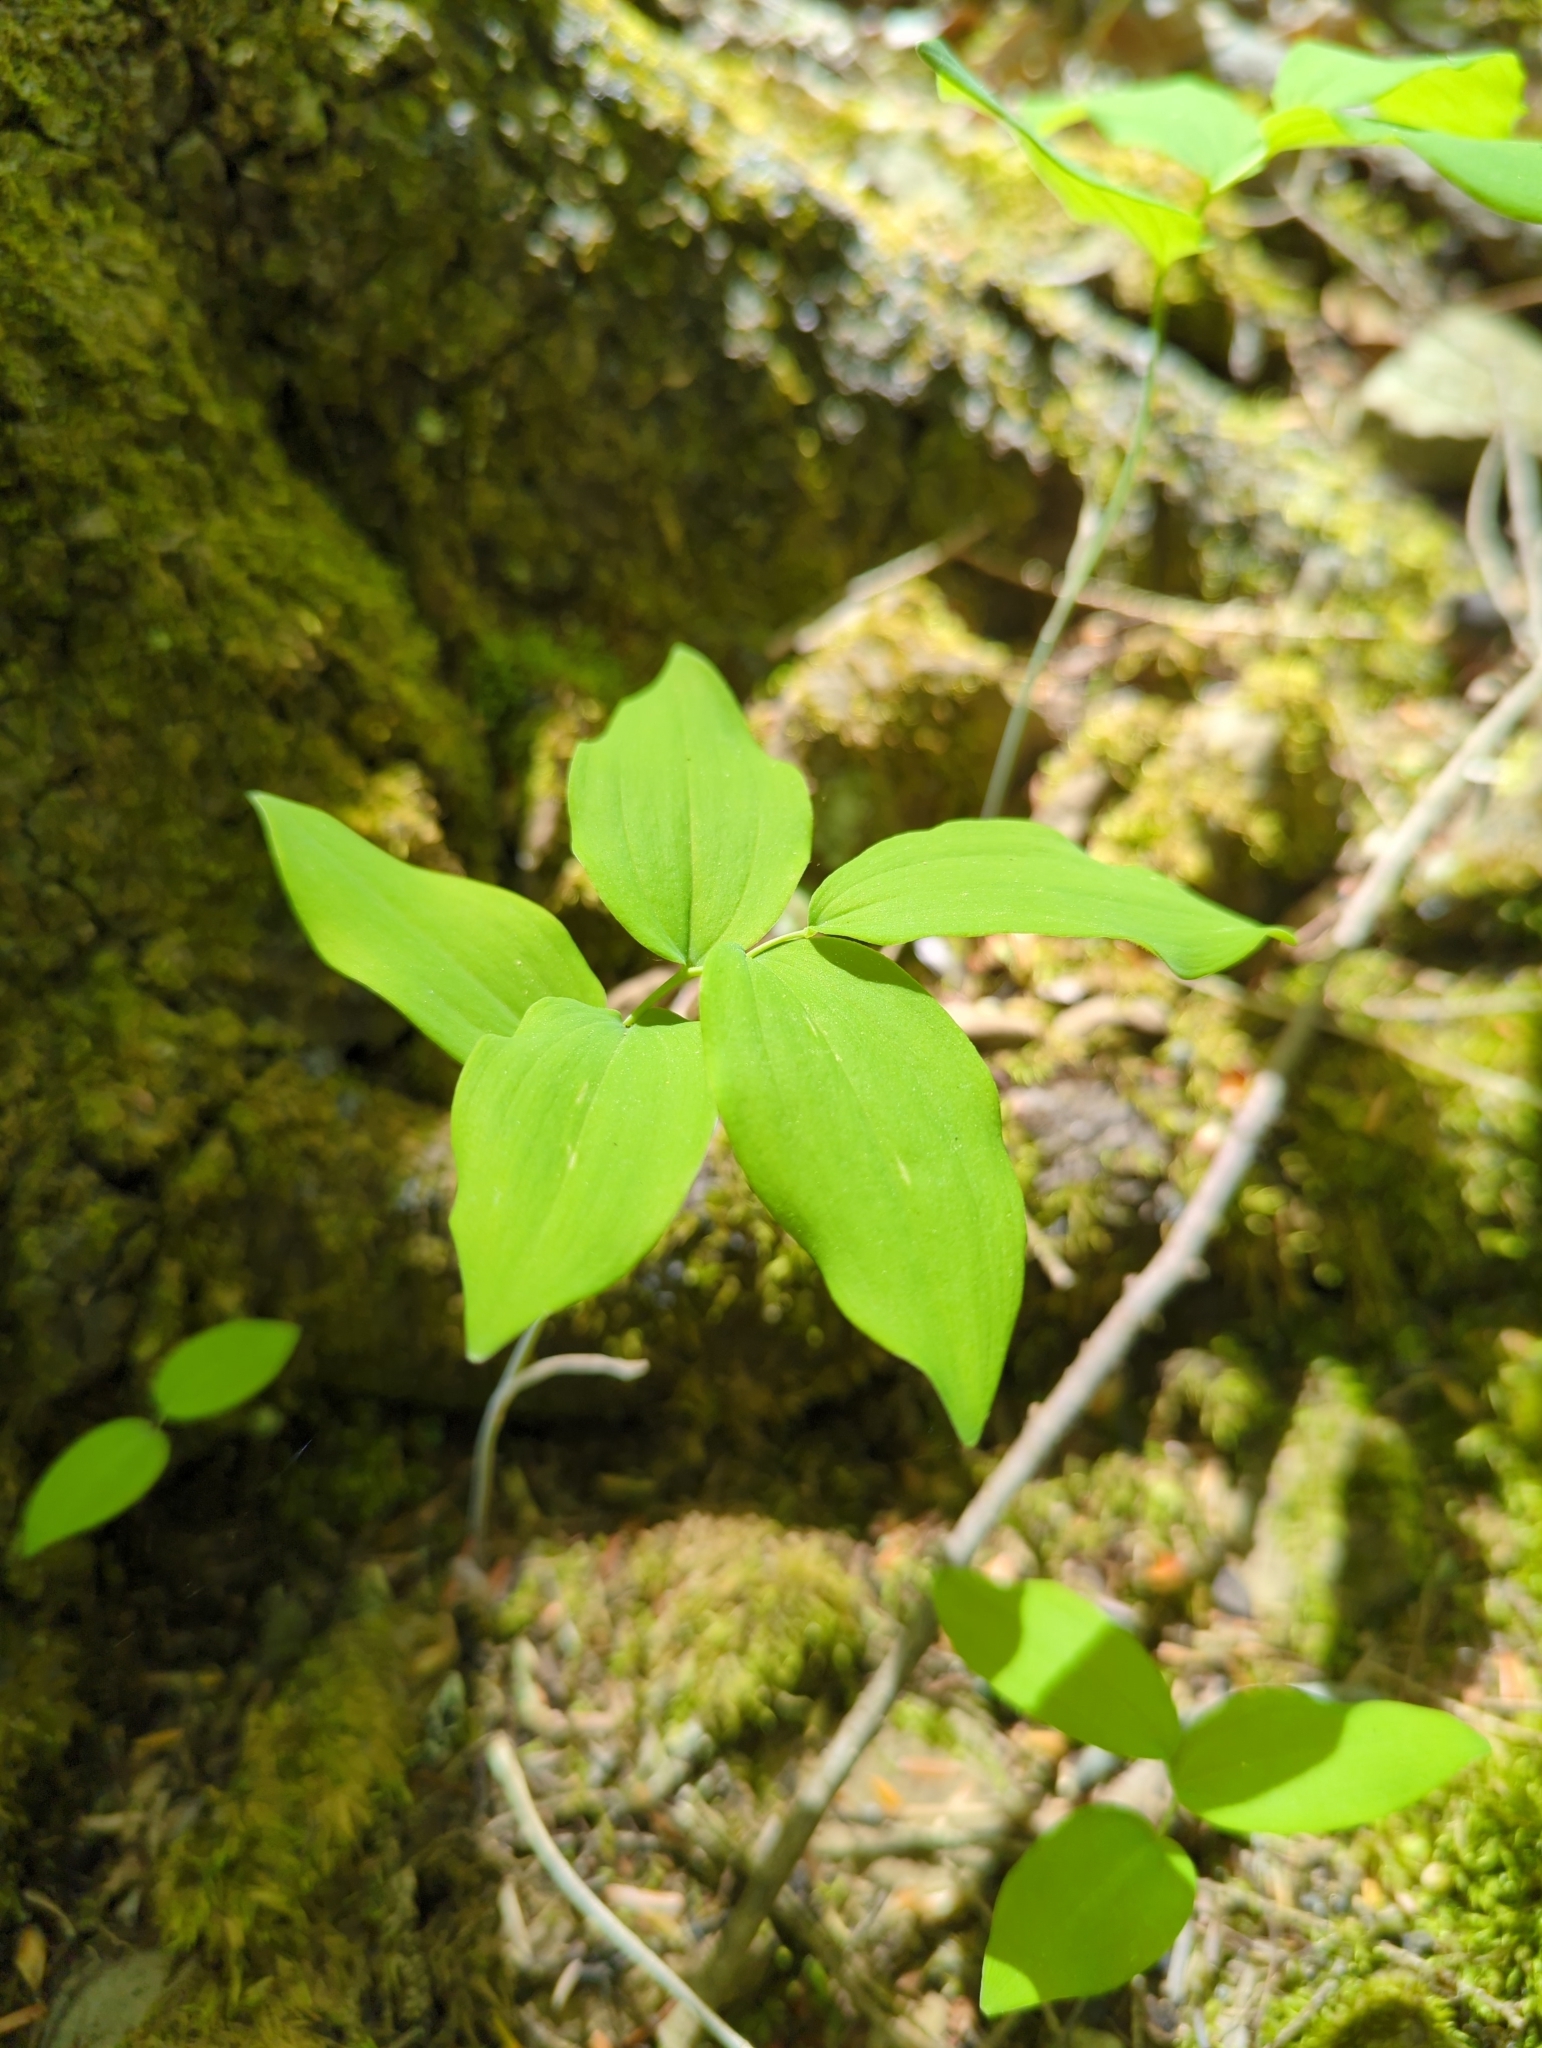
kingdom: Plantae
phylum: Tracheophyta
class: Liliopsida
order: Asparagales
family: Asparagaceae
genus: Polygonatum
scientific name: Polygonatum pubescens
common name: Downy solomon's seal
